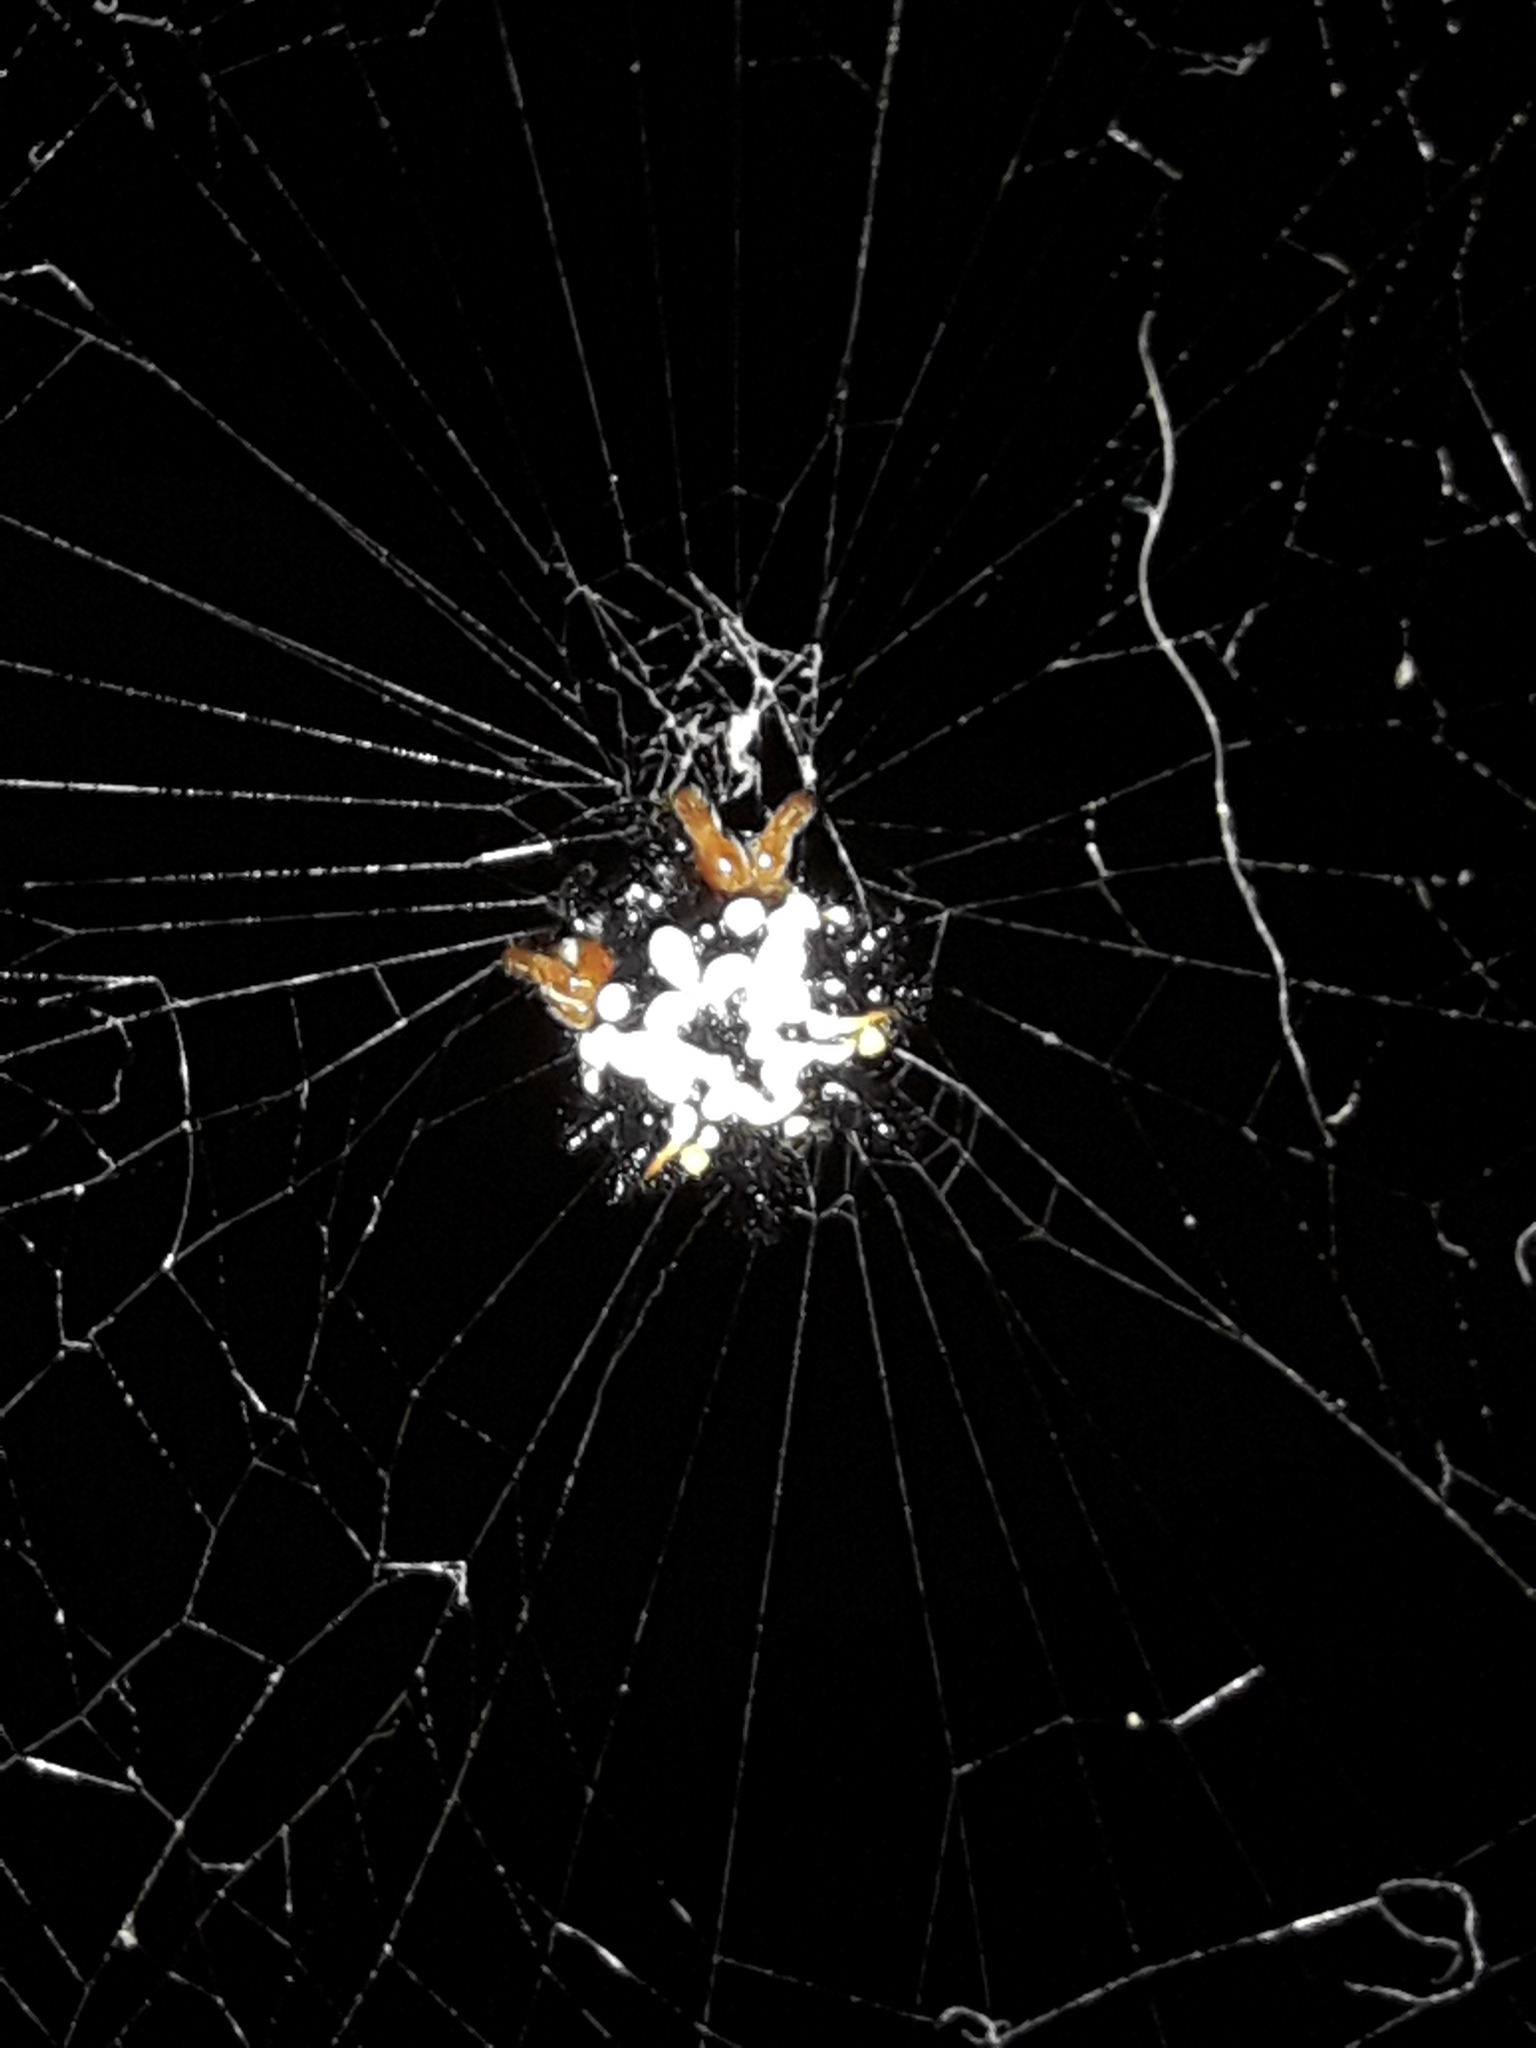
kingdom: Animalia
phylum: Arthropoda
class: Arachnida
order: Araneae
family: Araneidae
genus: Austracantha
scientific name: Austracantha minax
